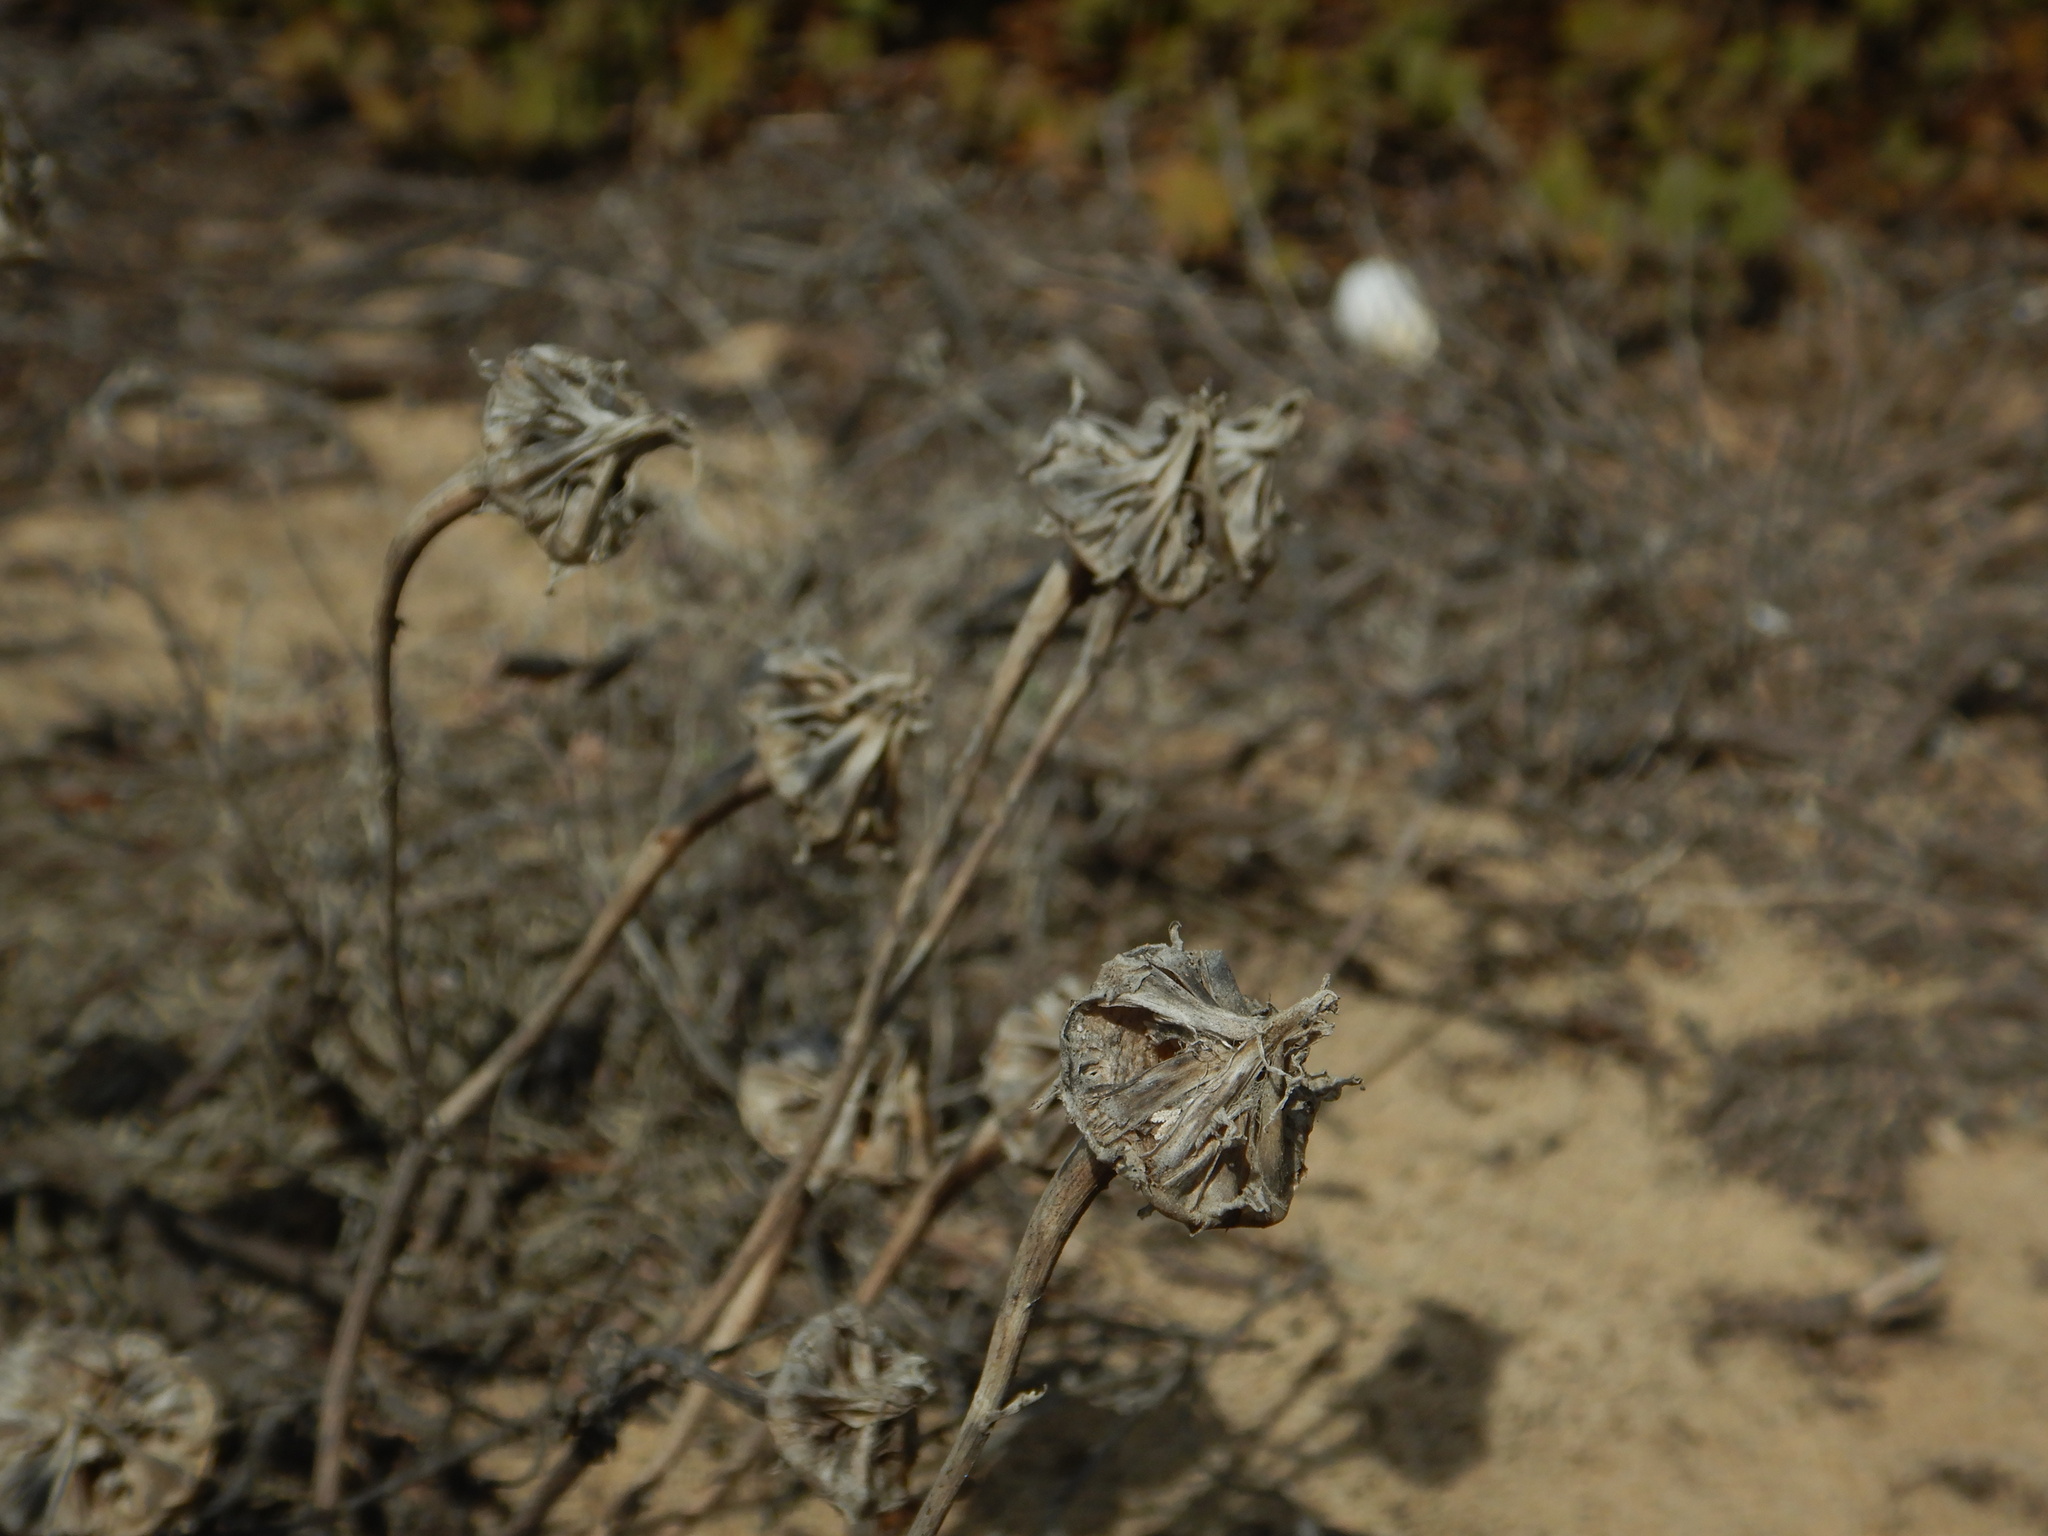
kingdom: Plantae
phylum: Tracheophyta
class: Magnoliopsida
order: Asterales
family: Asteraceae
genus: Reichardia
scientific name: Reichardia gaditana
